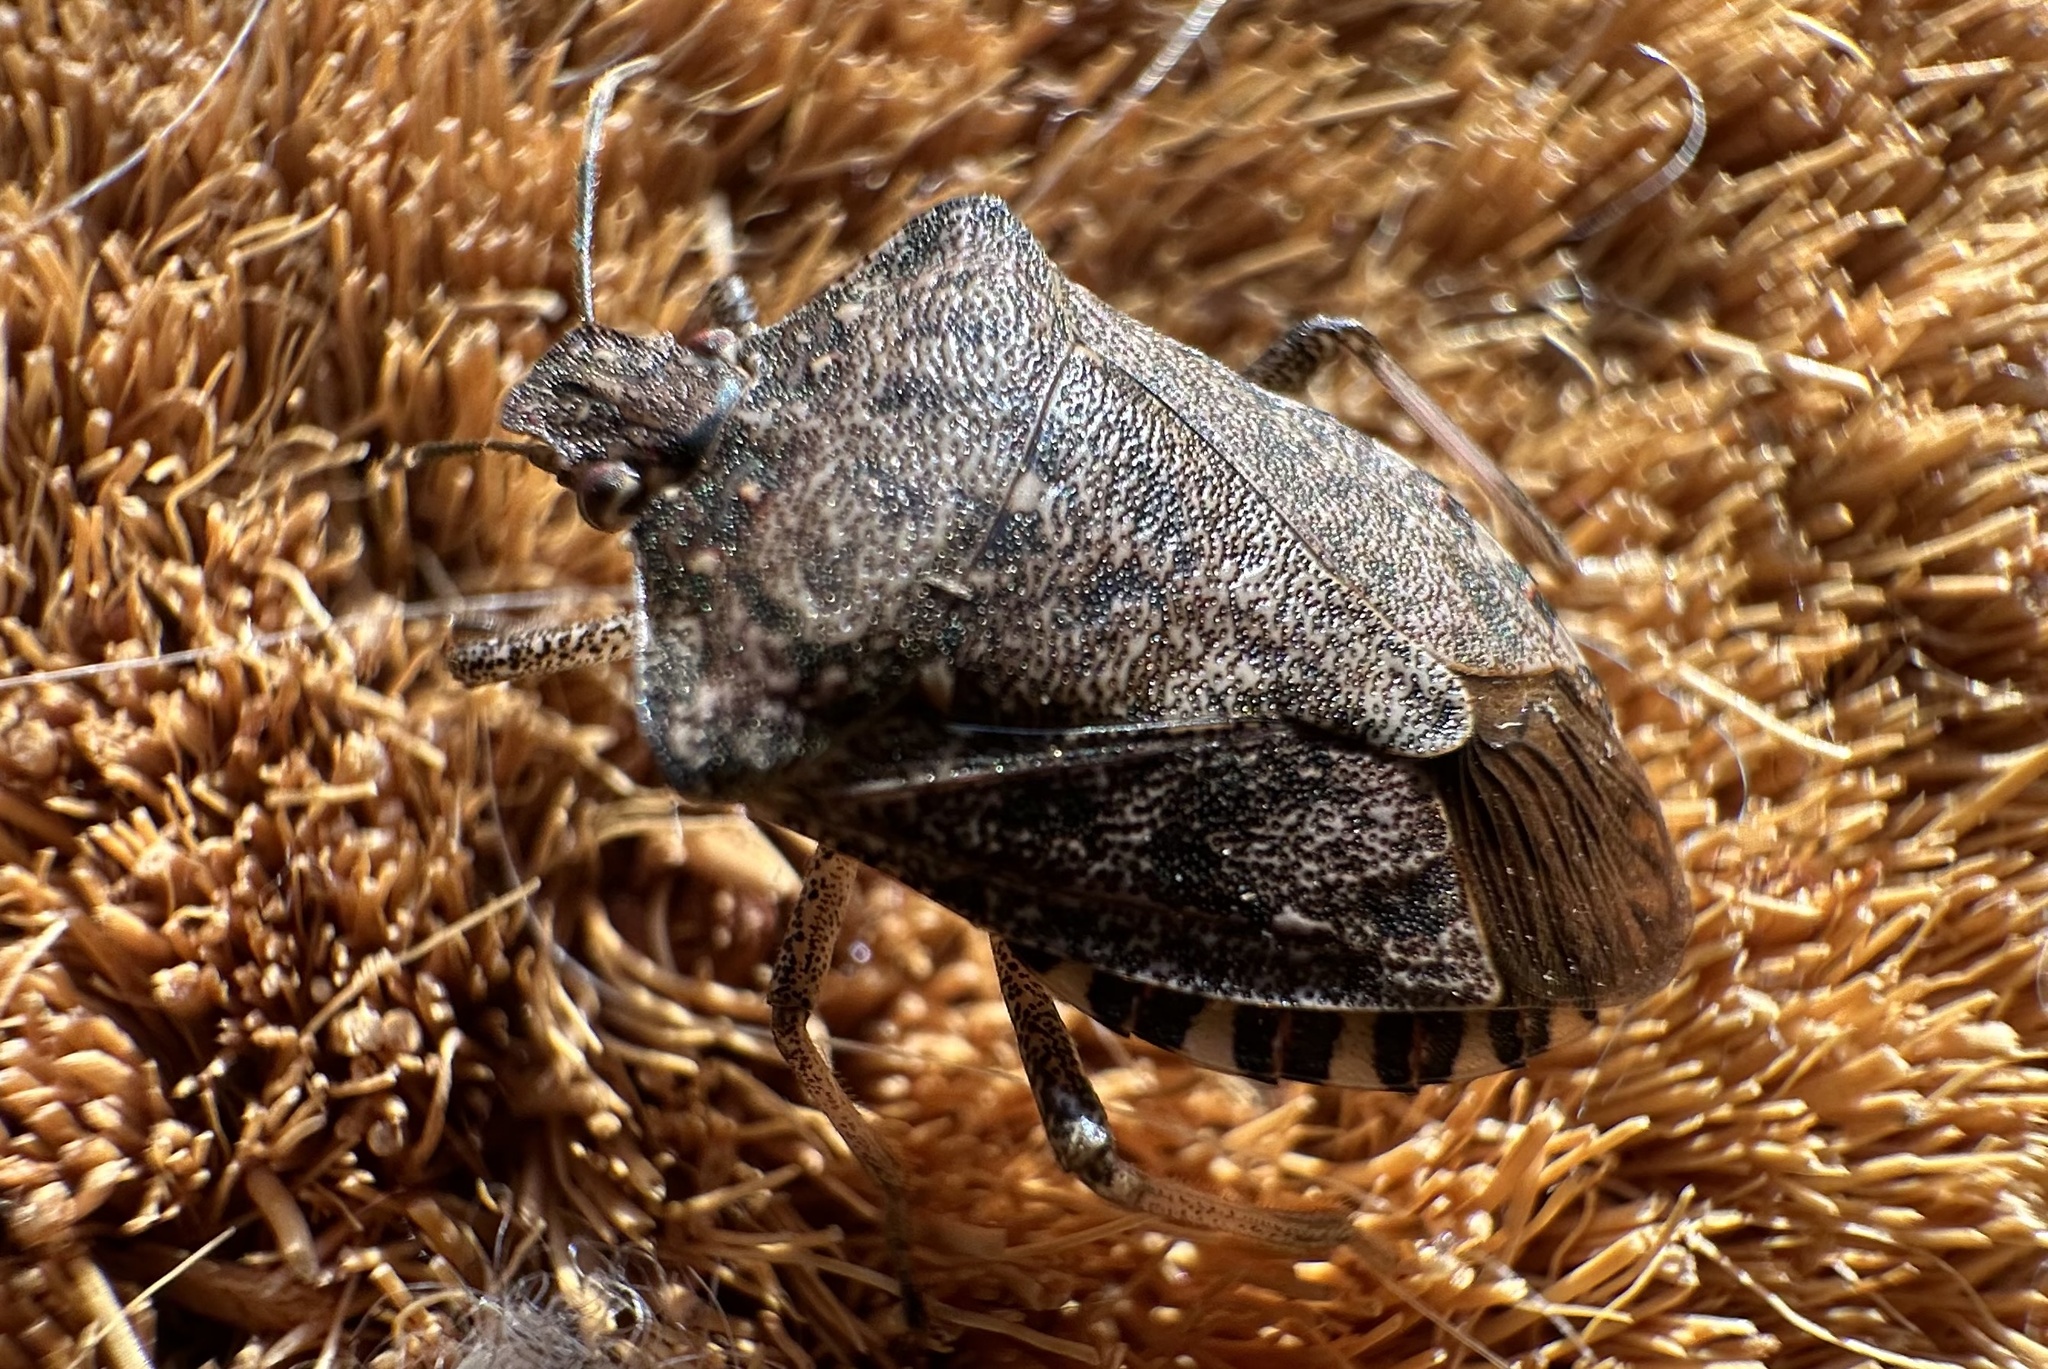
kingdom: Animalia
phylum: Arthropoda
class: Insecta
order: Hemiptera
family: Pentatomidae
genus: Halyomorpha
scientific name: Halyomorpha halys
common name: Brown marmorated stink bug
